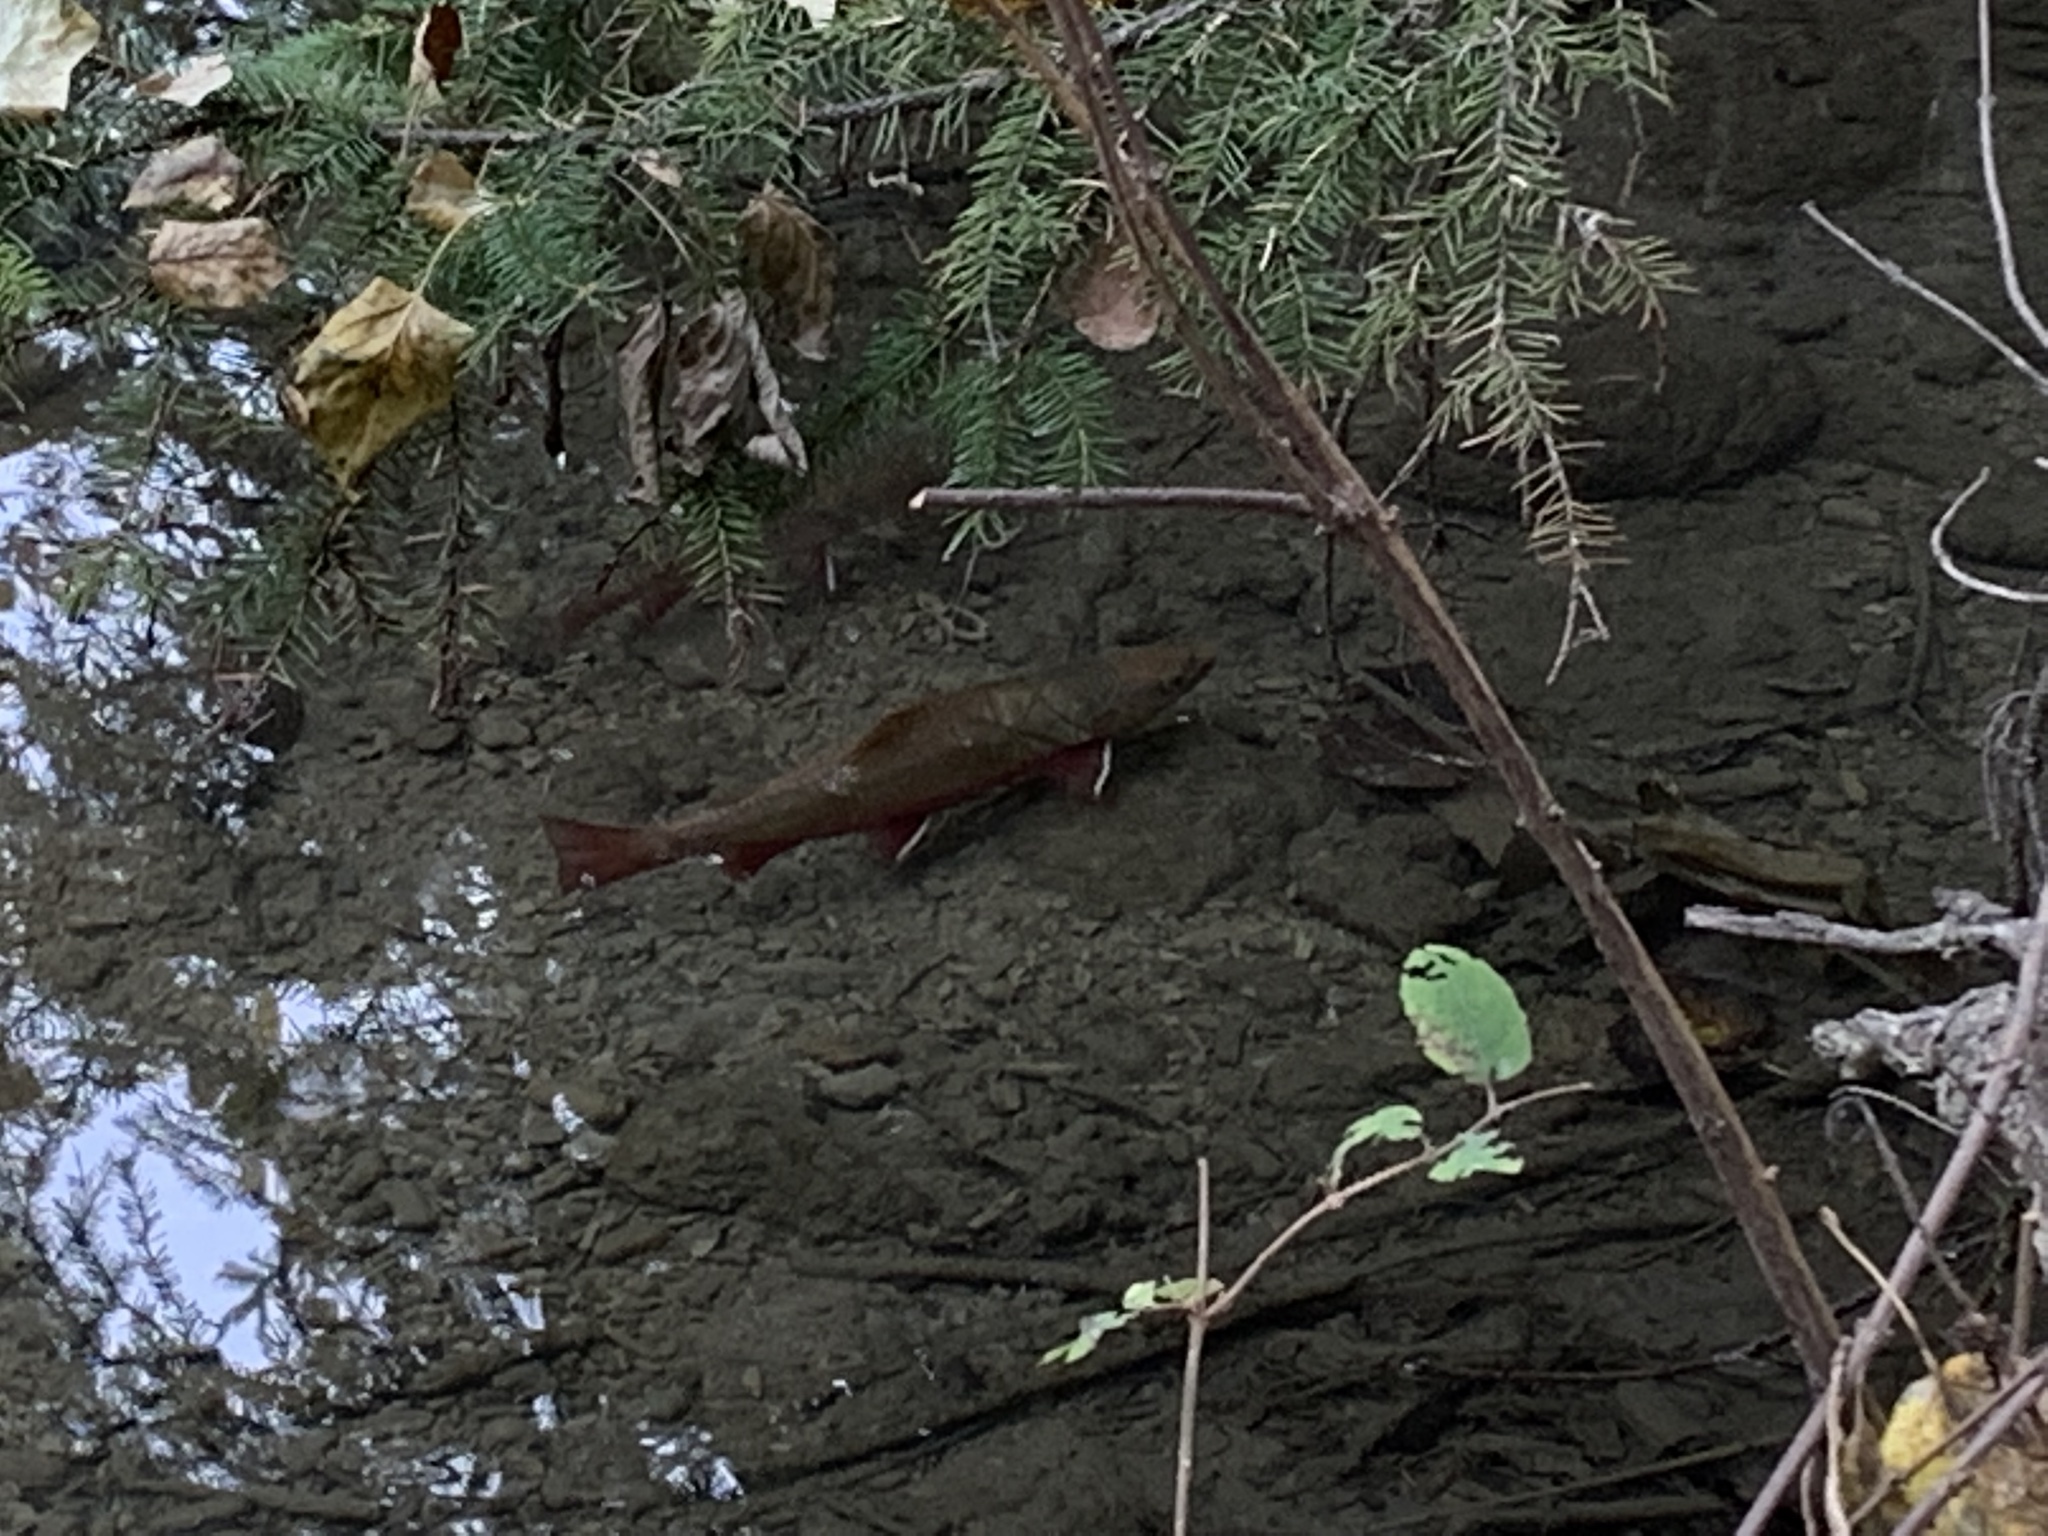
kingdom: Animalia
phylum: Chordata
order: Salmoniformes
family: Salmonidae
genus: Salvelinus
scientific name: Salvelinus fontinalis
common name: Brook trout
